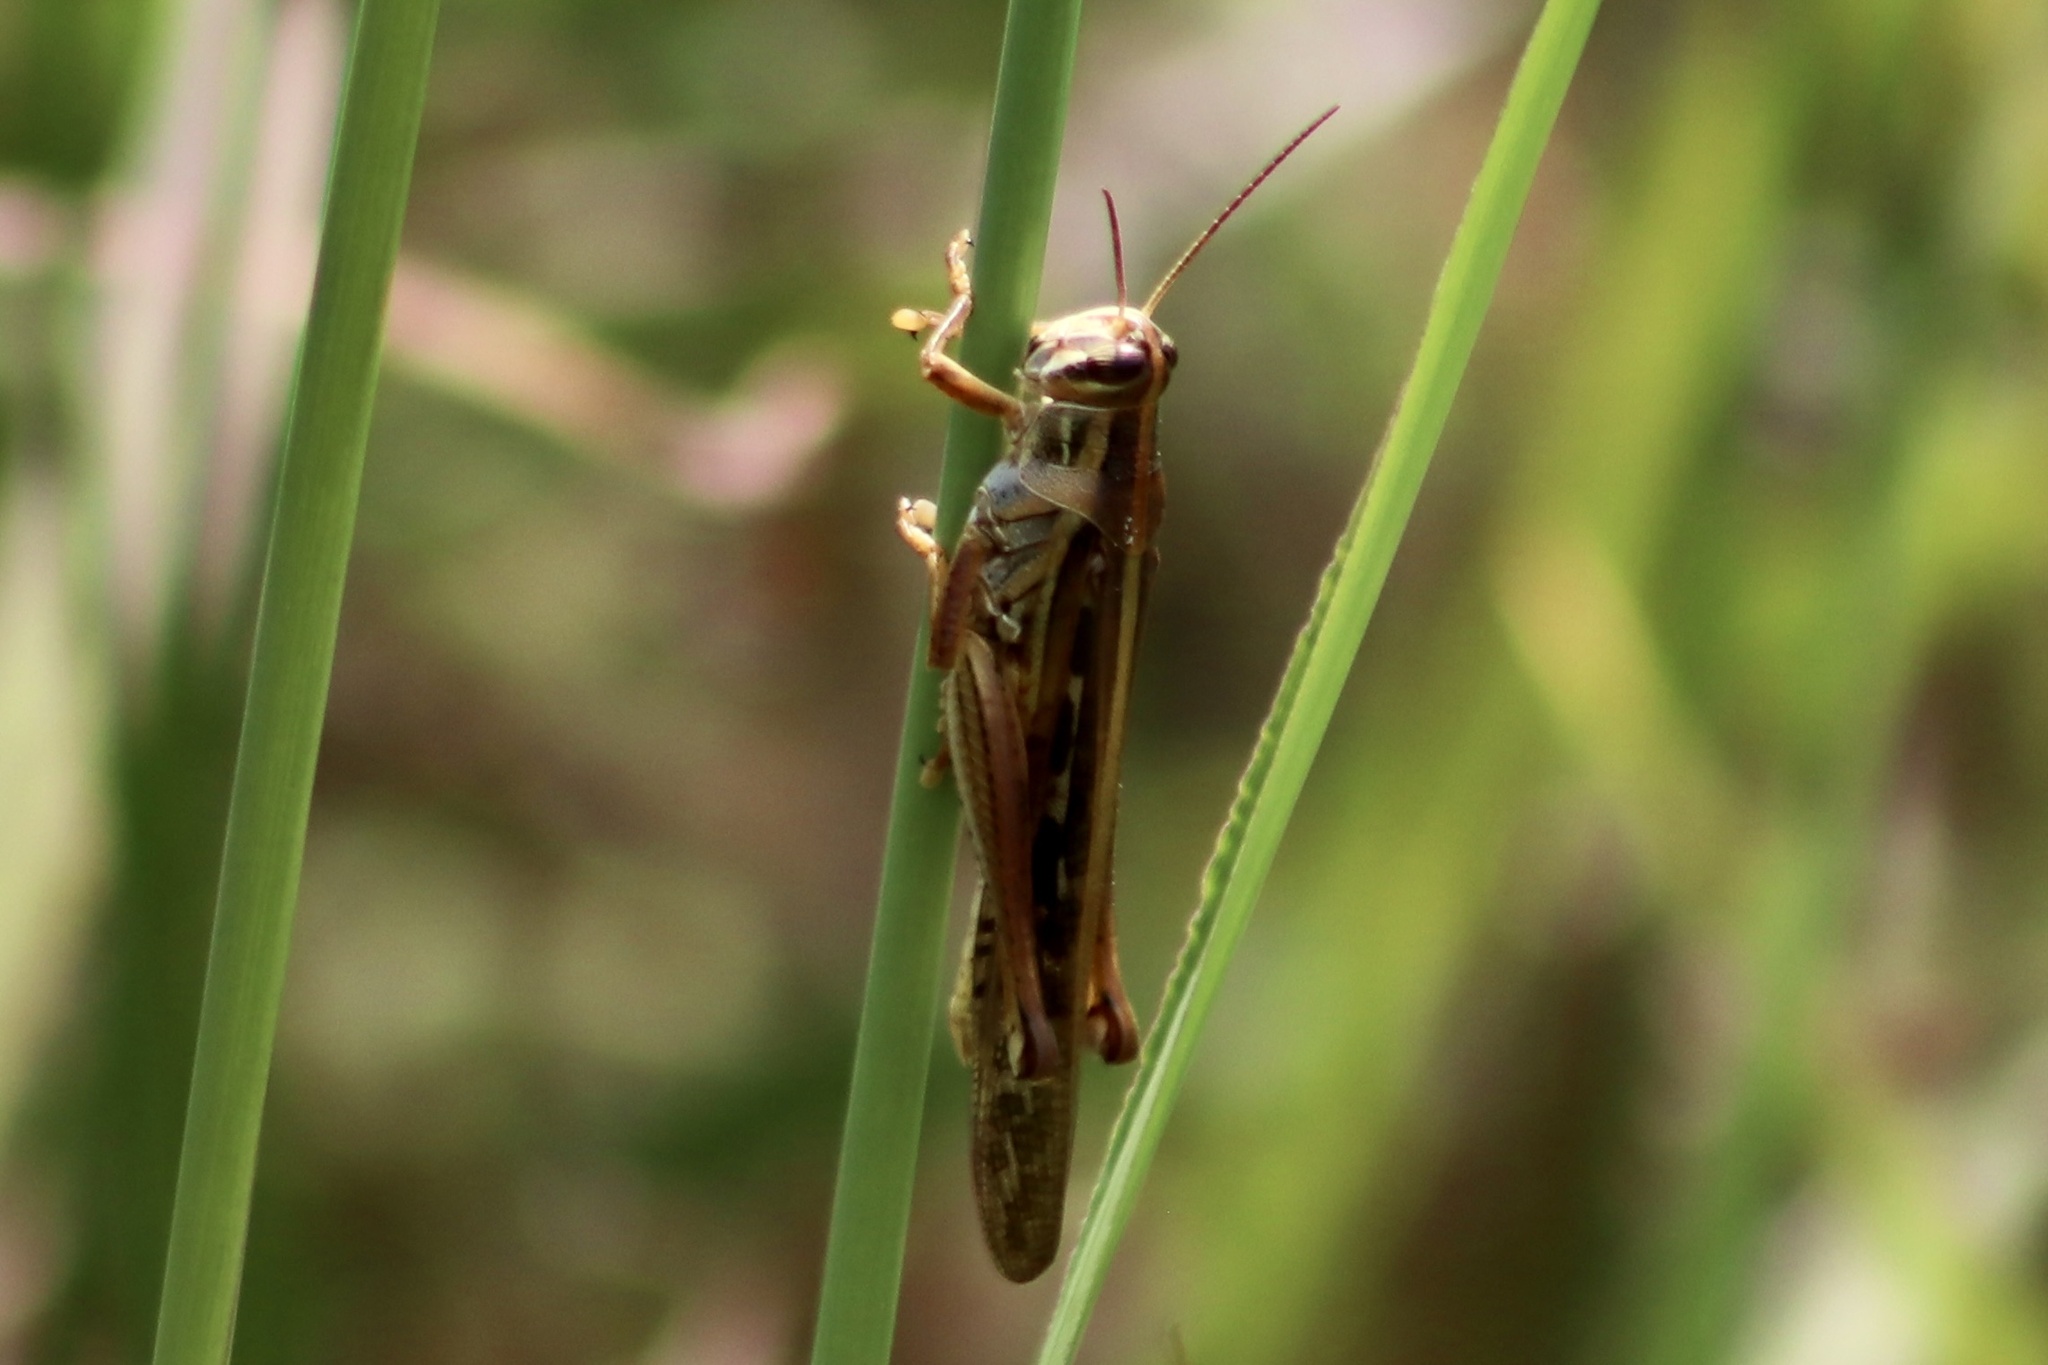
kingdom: Animalia
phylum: Arthropoda
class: Insecta
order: Orthoptera
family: Acrididae
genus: Schistocerca
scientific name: Schistocerca americana
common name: American bird locust
